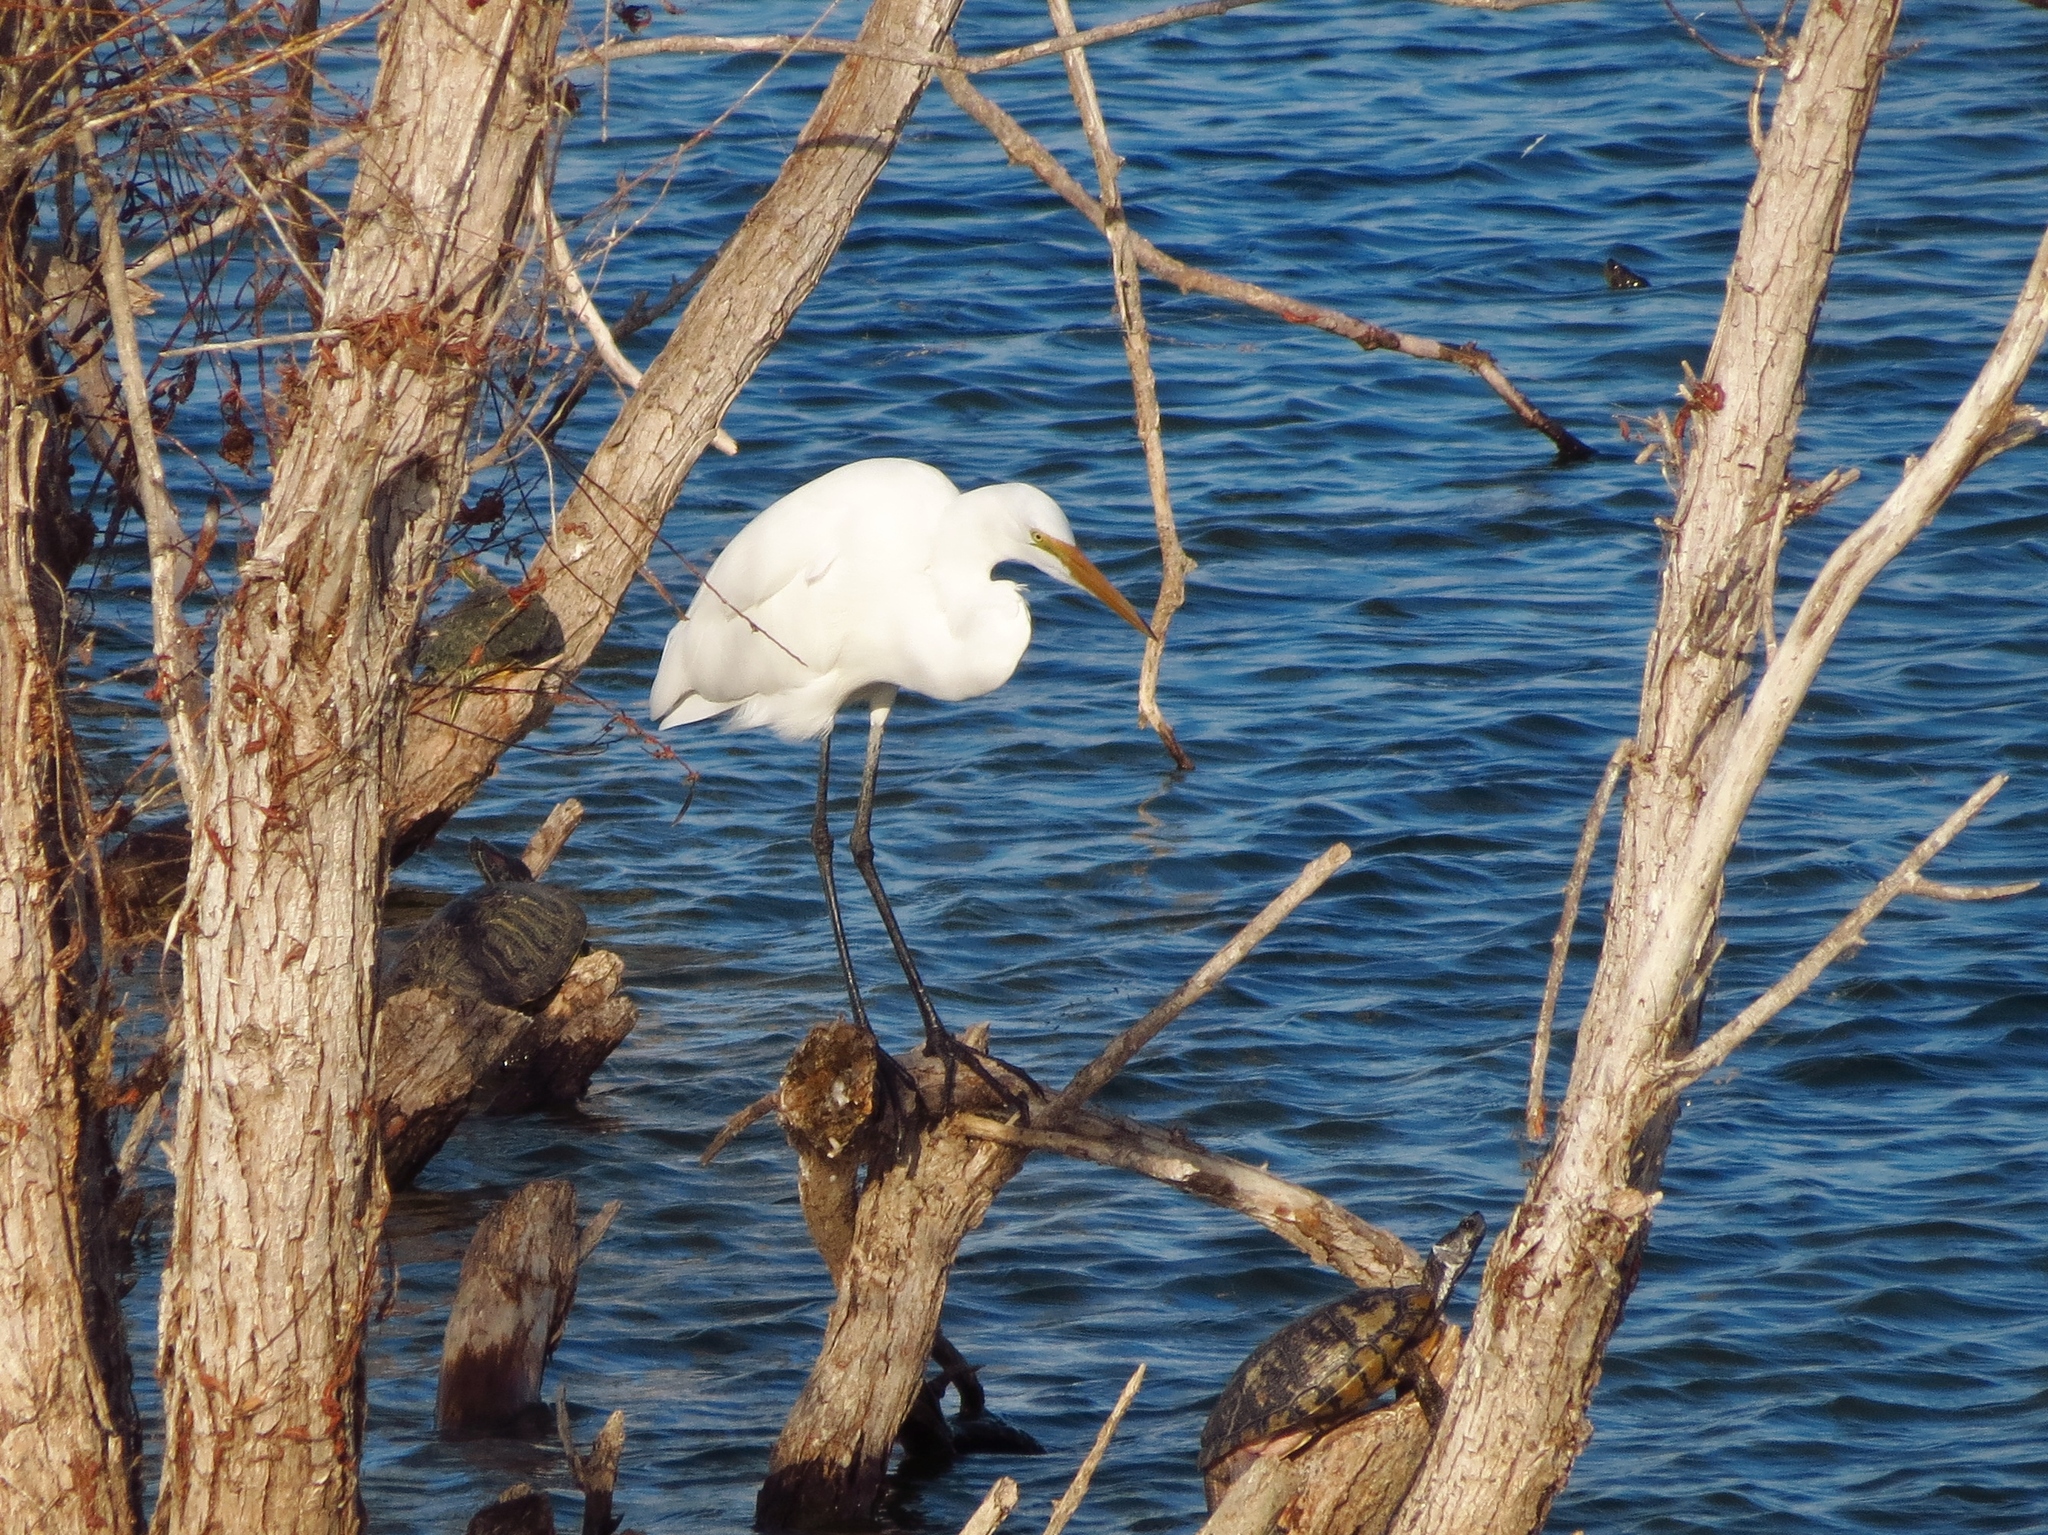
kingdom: Animalia
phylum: Chordata
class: Aves
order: Pelecaniformes
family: Ardeidae
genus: Ardea
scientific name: Ardea alba
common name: Great egret
